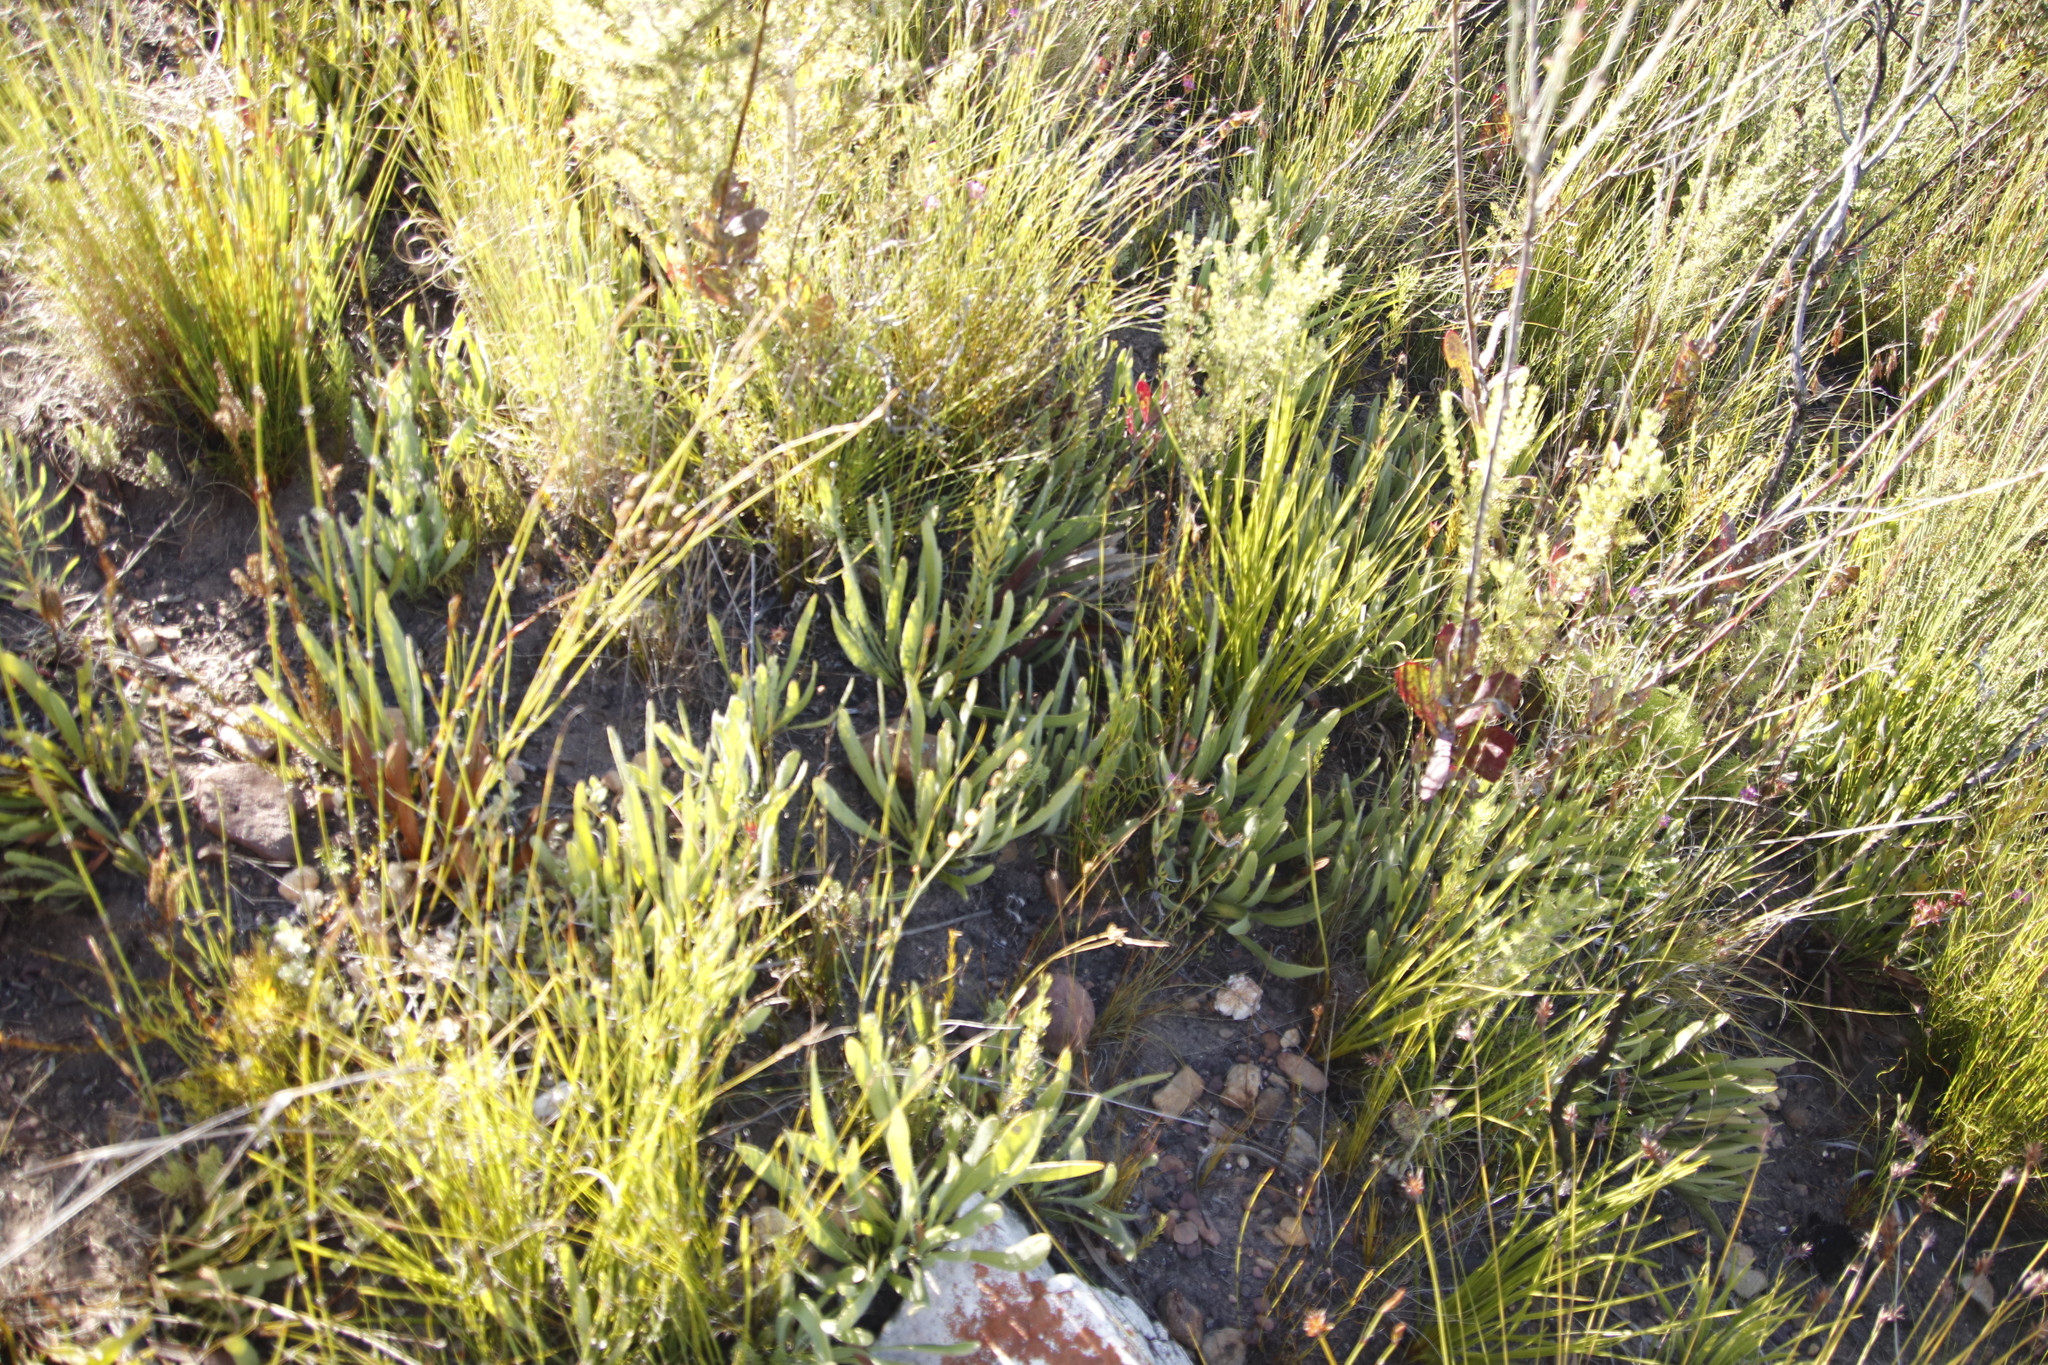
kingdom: Plantae
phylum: Tracheophyta
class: Magnoliopsida
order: Proteales
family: Proteaceae
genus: Protea
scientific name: Protea scabra
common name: Sandpaper-leaf sugarbush
